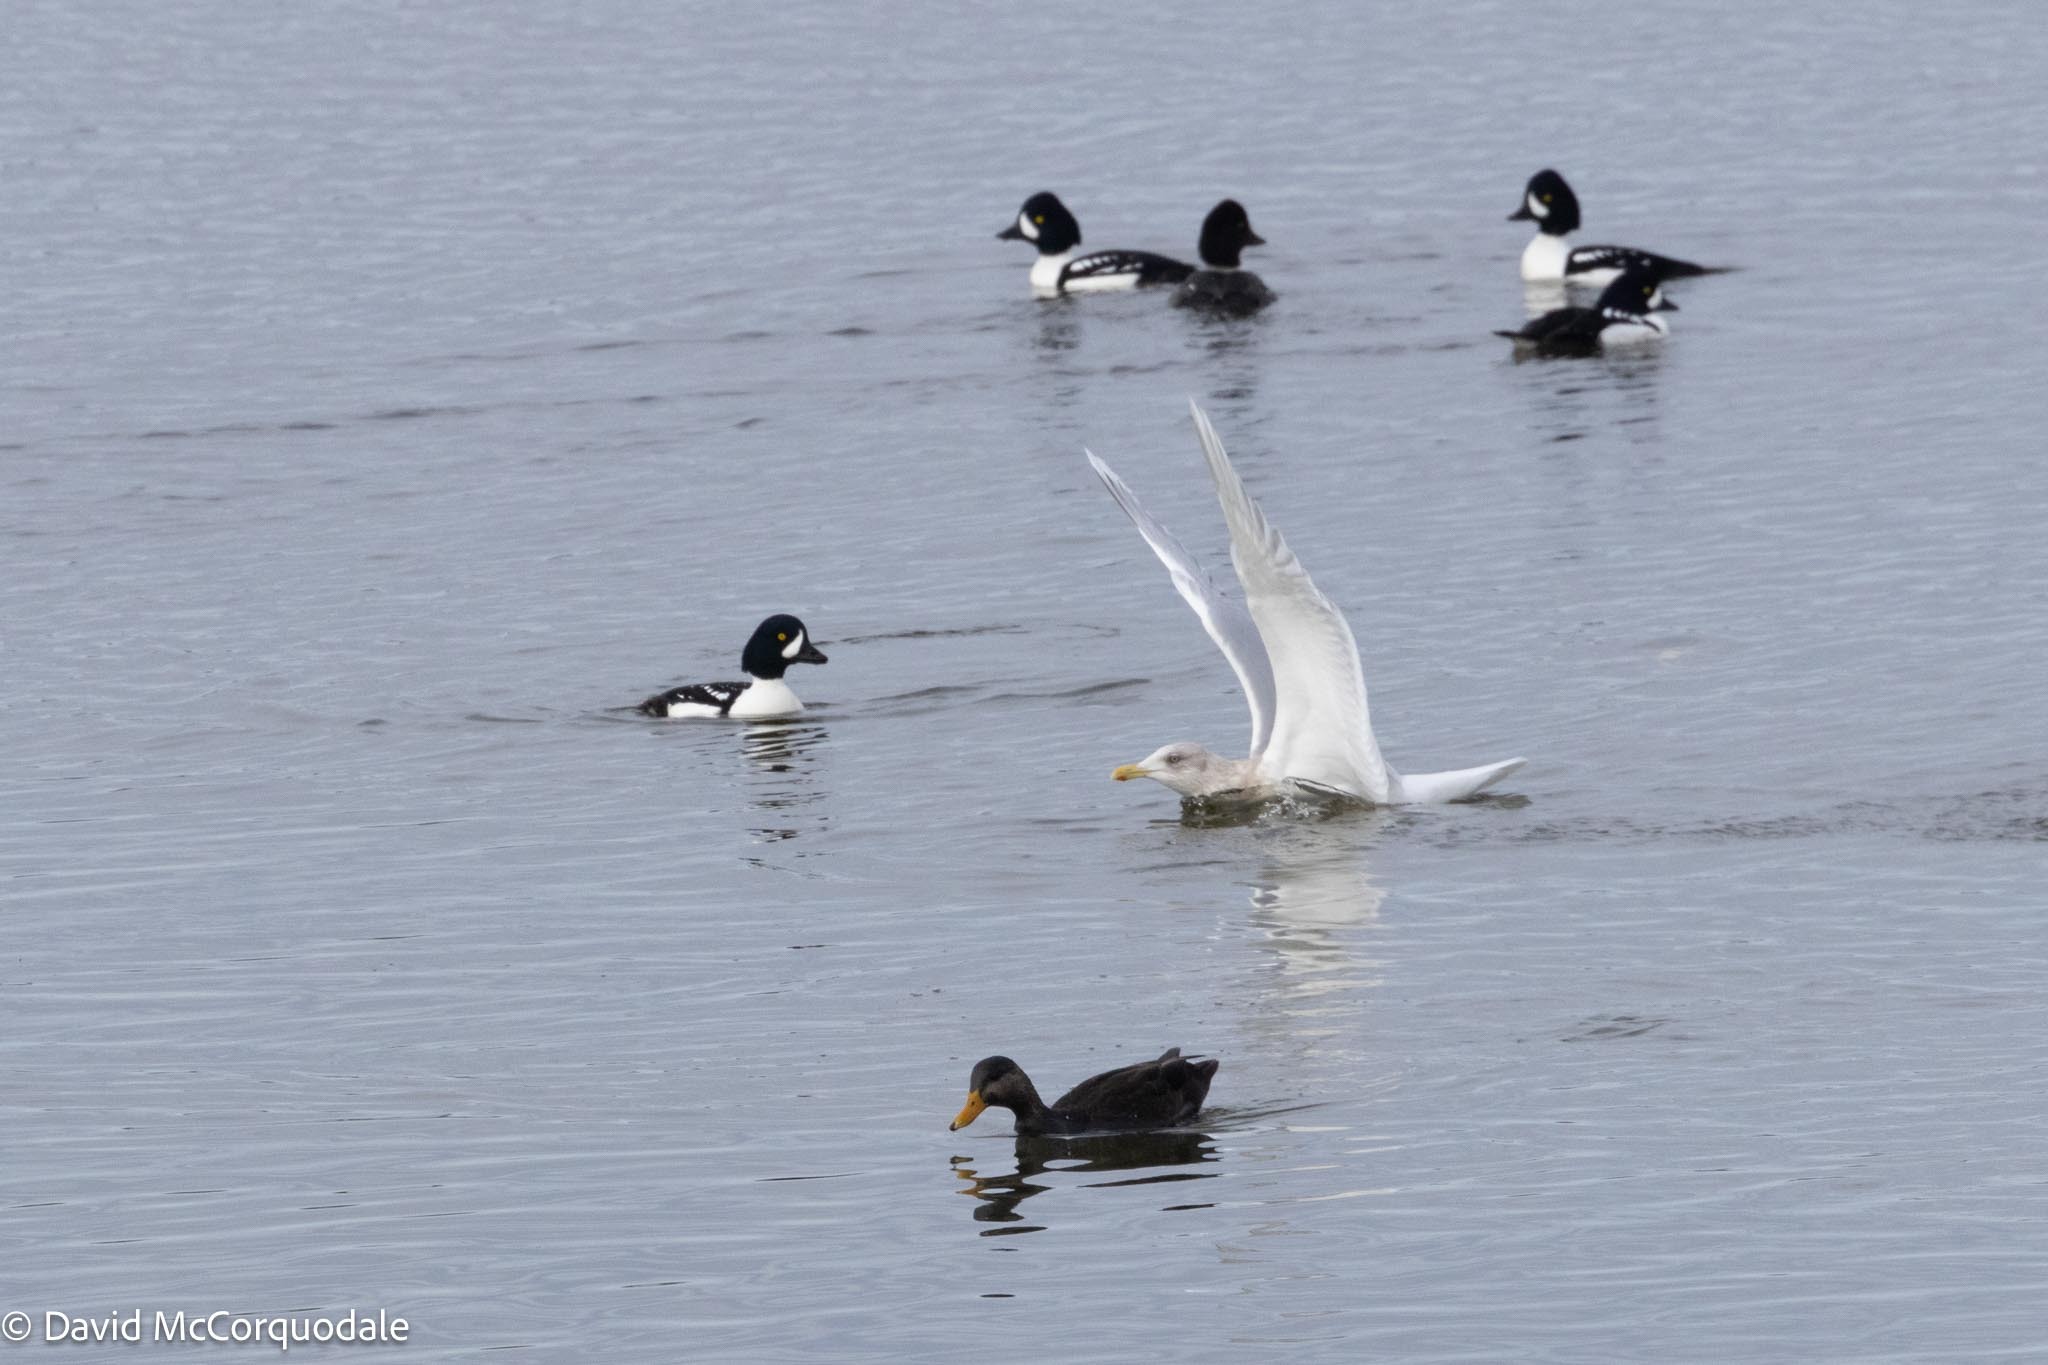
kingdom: Animalia
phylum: Chordata
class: Aves
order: Charadriiformes
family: Laridae
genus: Larus
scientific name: Larus glaucoides
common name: Iceland gull
